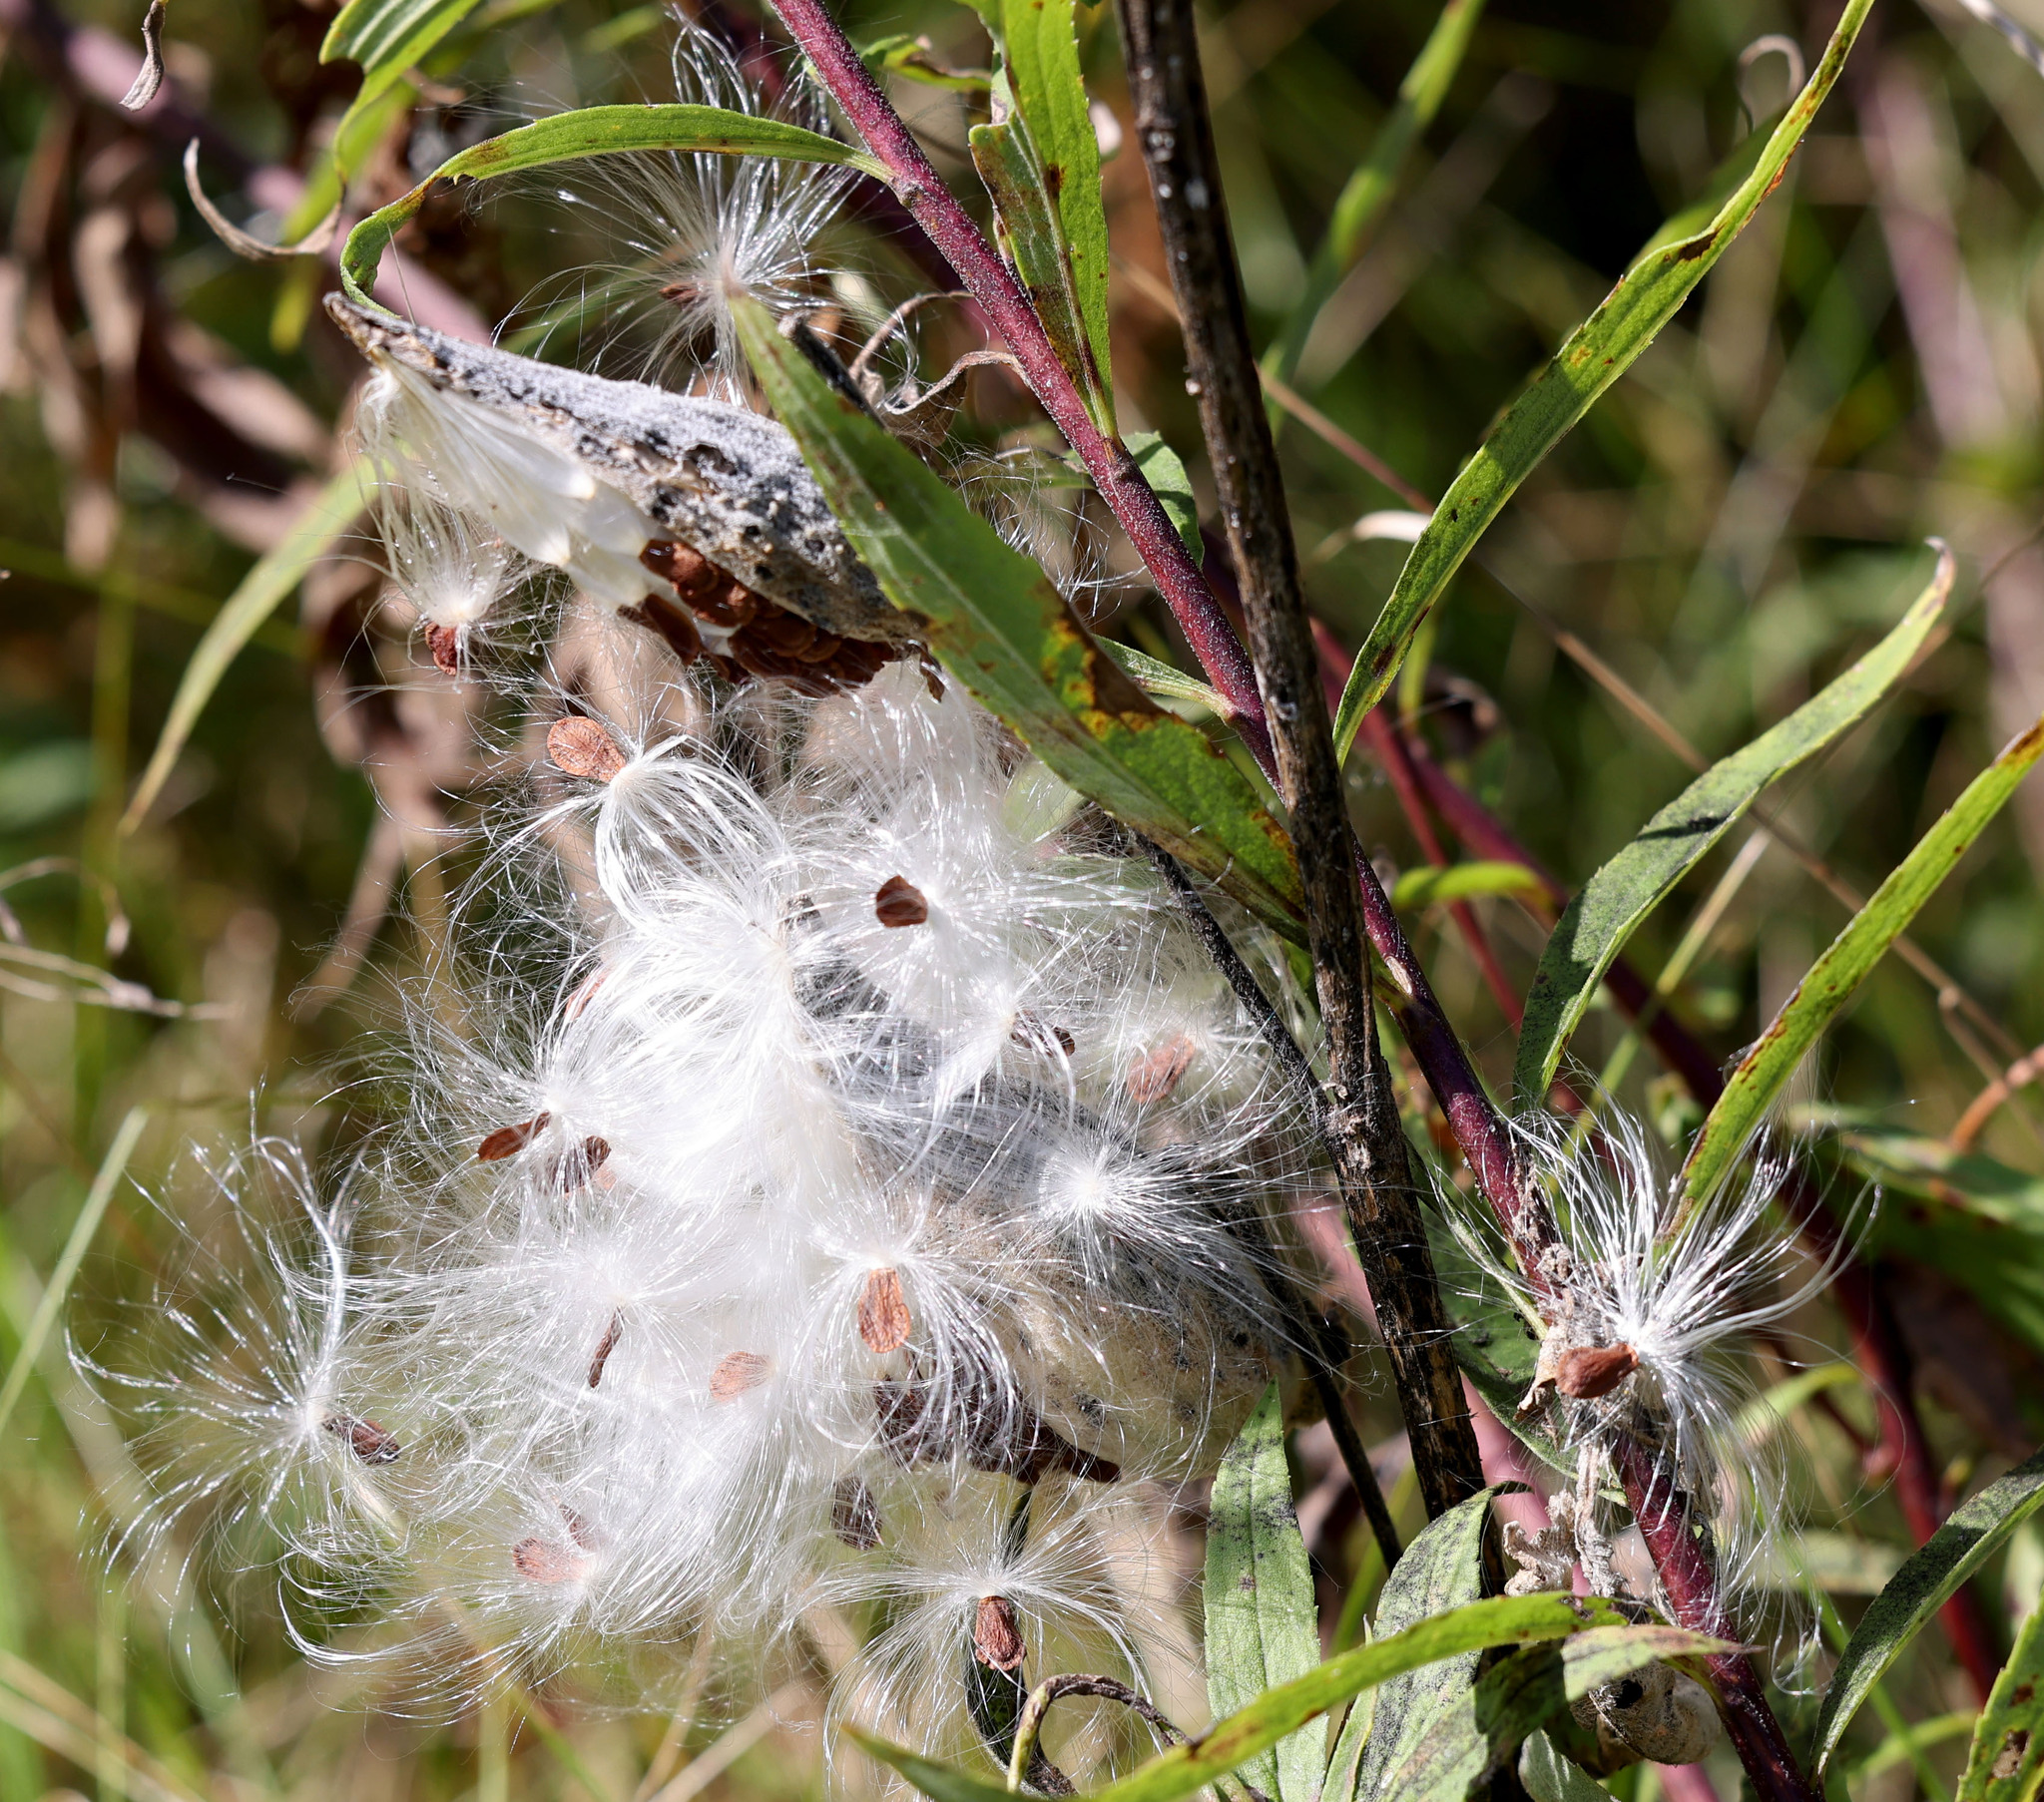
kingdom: Plantae
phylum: Tracheophyta
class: Magnoliopsida
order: Gentianales
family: Apocynaceae
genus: Asclepias
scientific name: Asclepias syriaca
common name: Common milkweed
